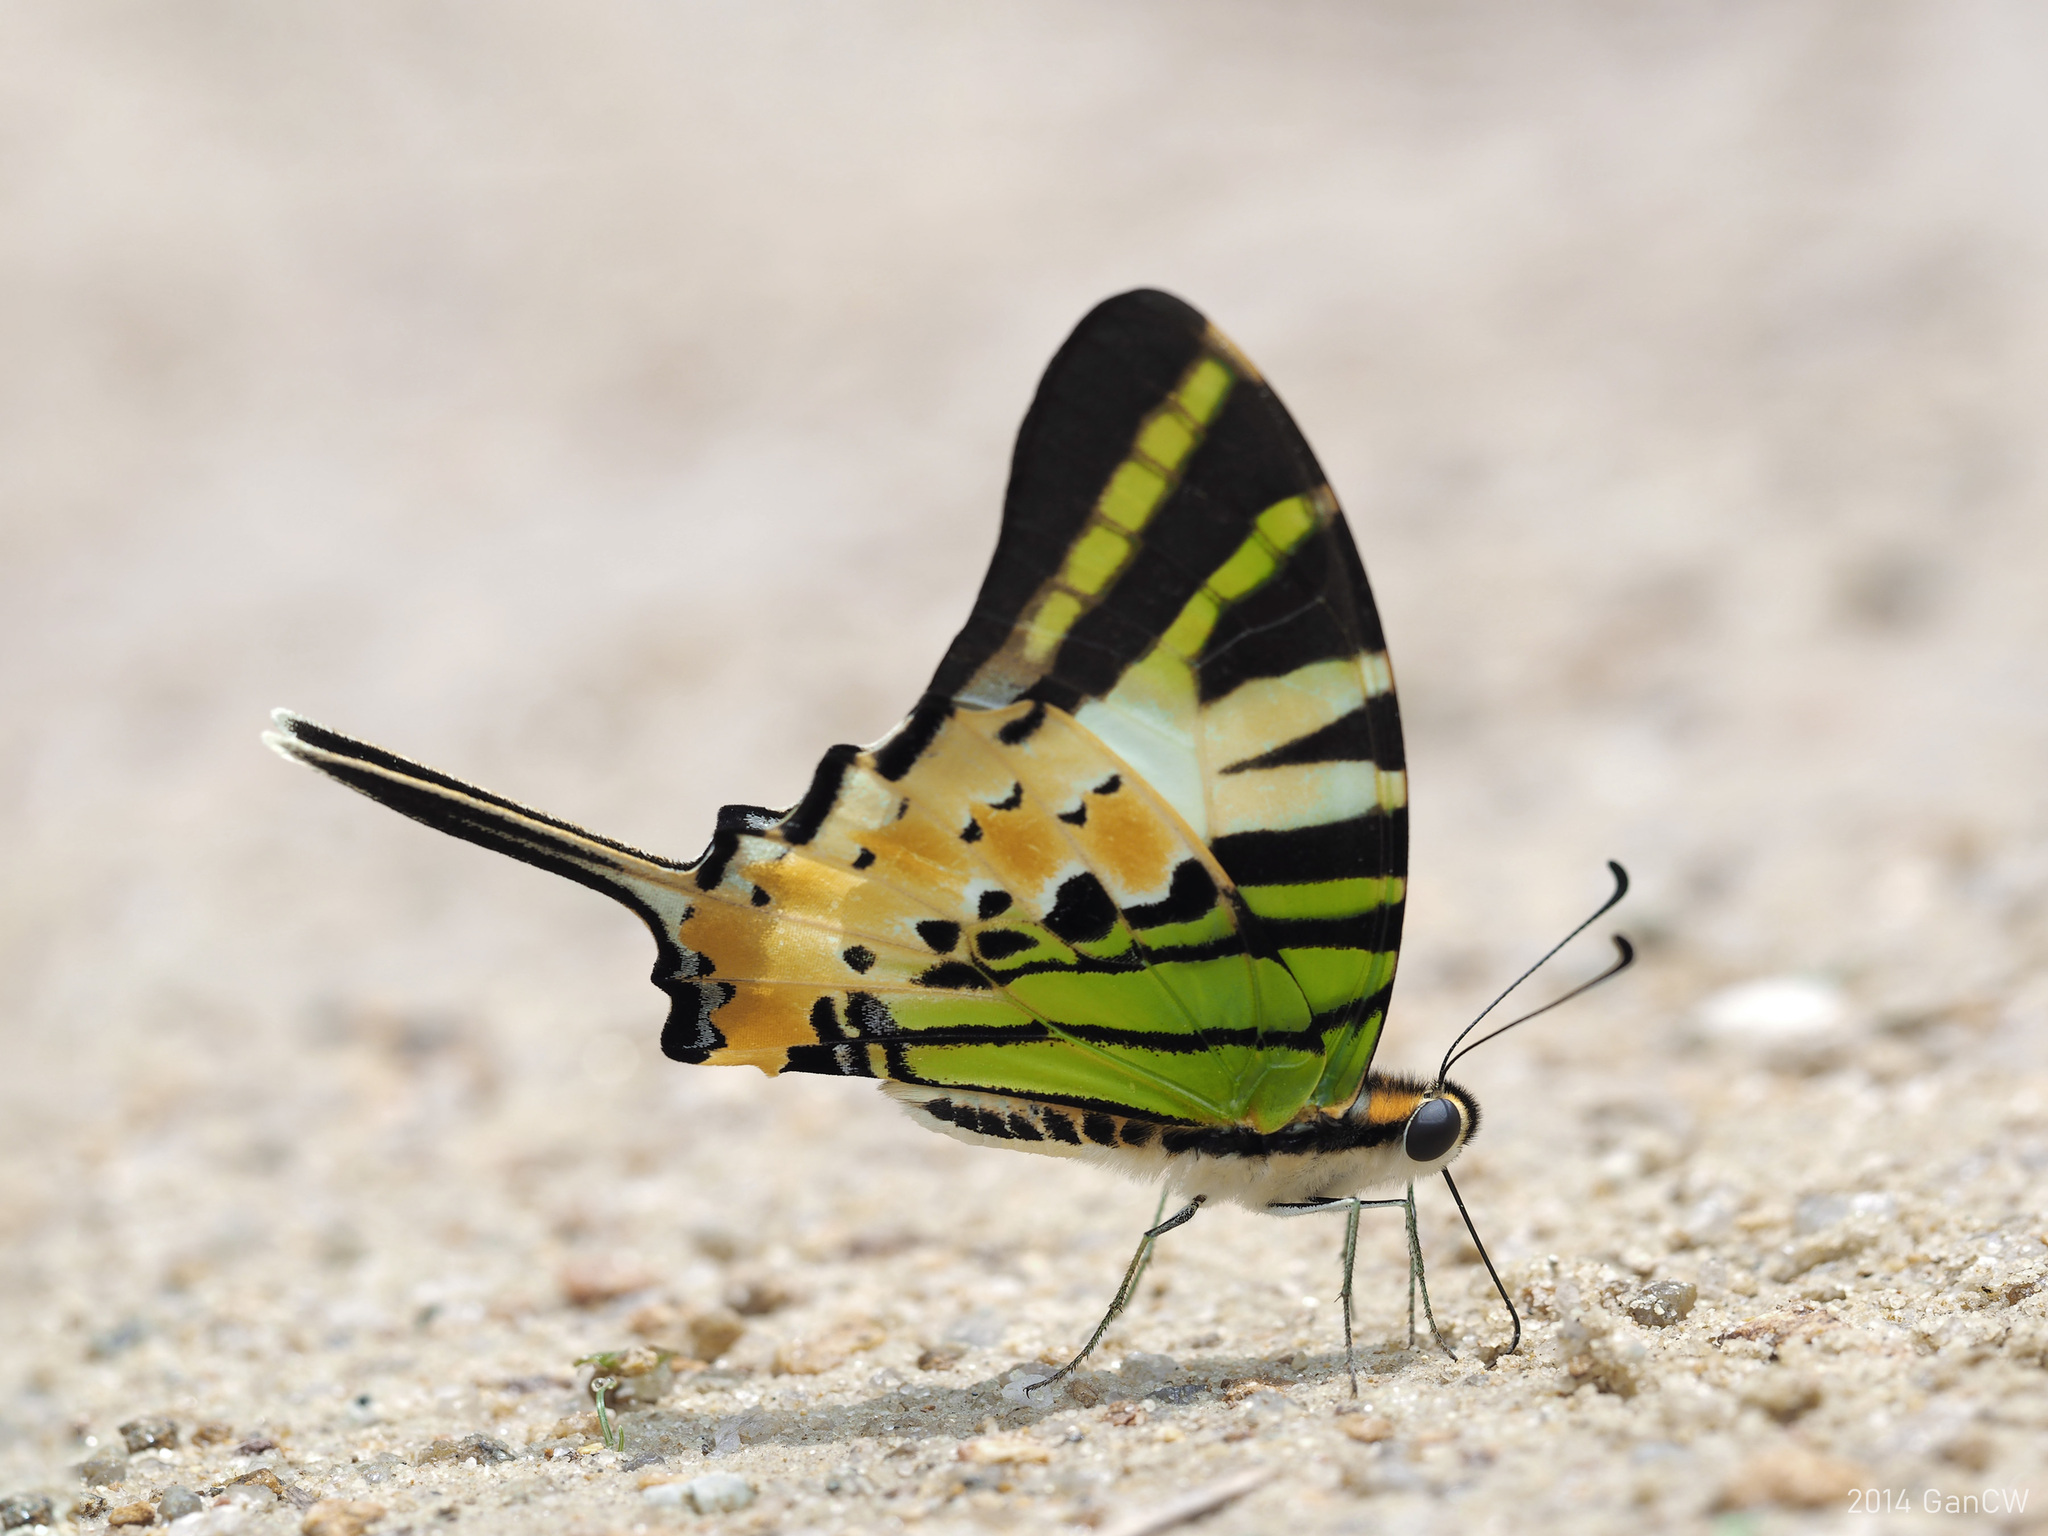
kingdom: Animalia
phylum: Arthropoda
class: Insecta
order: Lepidoptera
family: Papilionidae
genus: Graphium
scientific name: Graphium antiphates
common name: Fivebar swordtail
